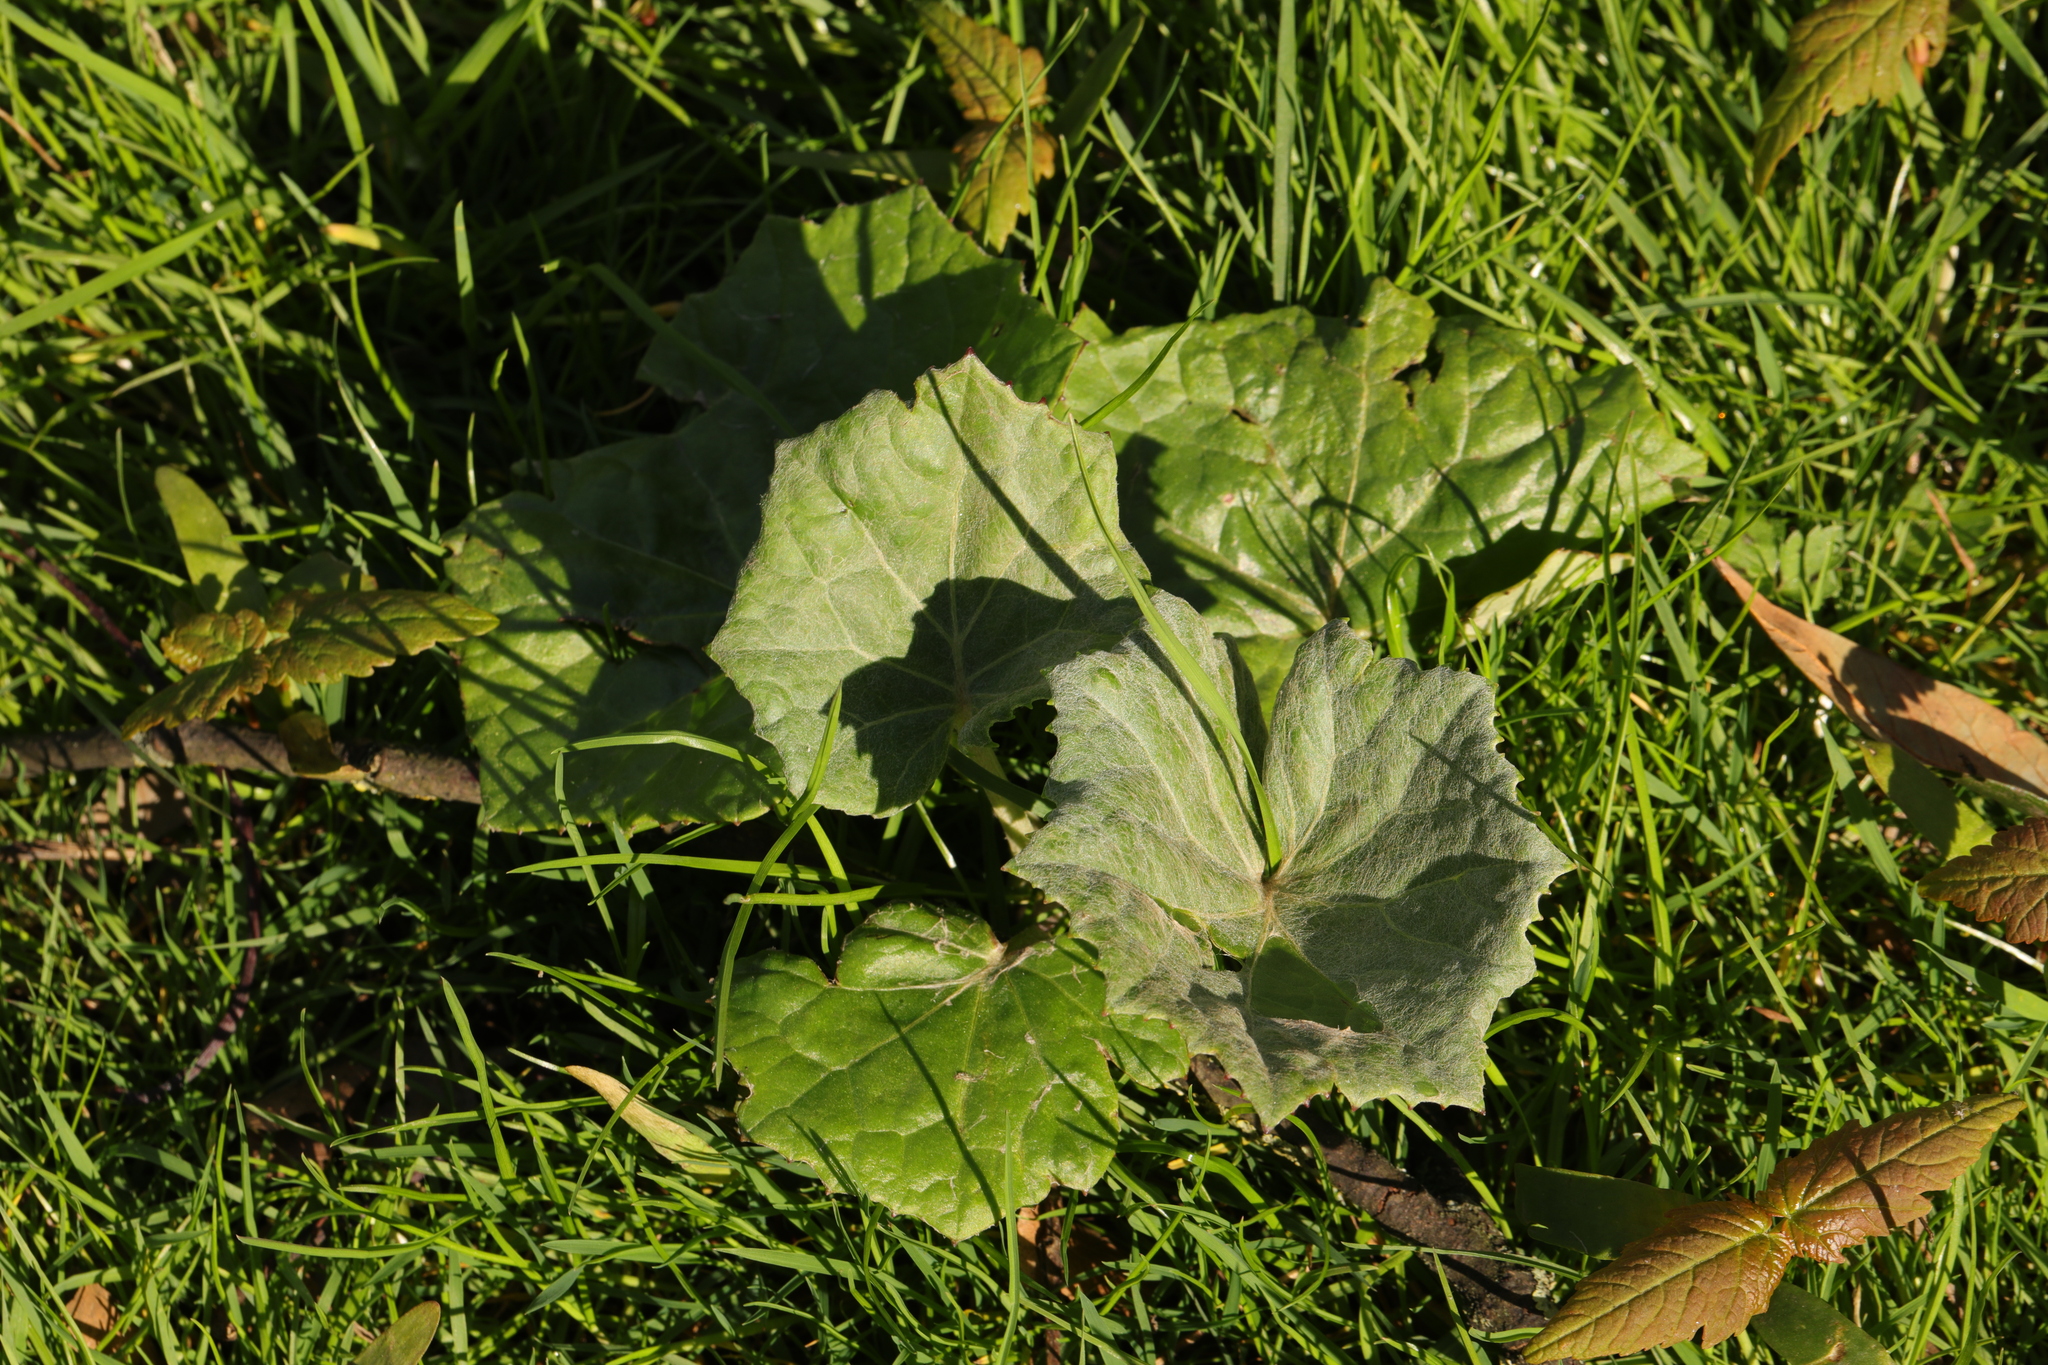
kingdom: Plantae
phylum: Tracheophyta
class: Magnoliopsida
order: Asterales
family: Asteraceae
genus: Tussilago
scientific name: Tussilago farfara
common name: Coltsfoot
